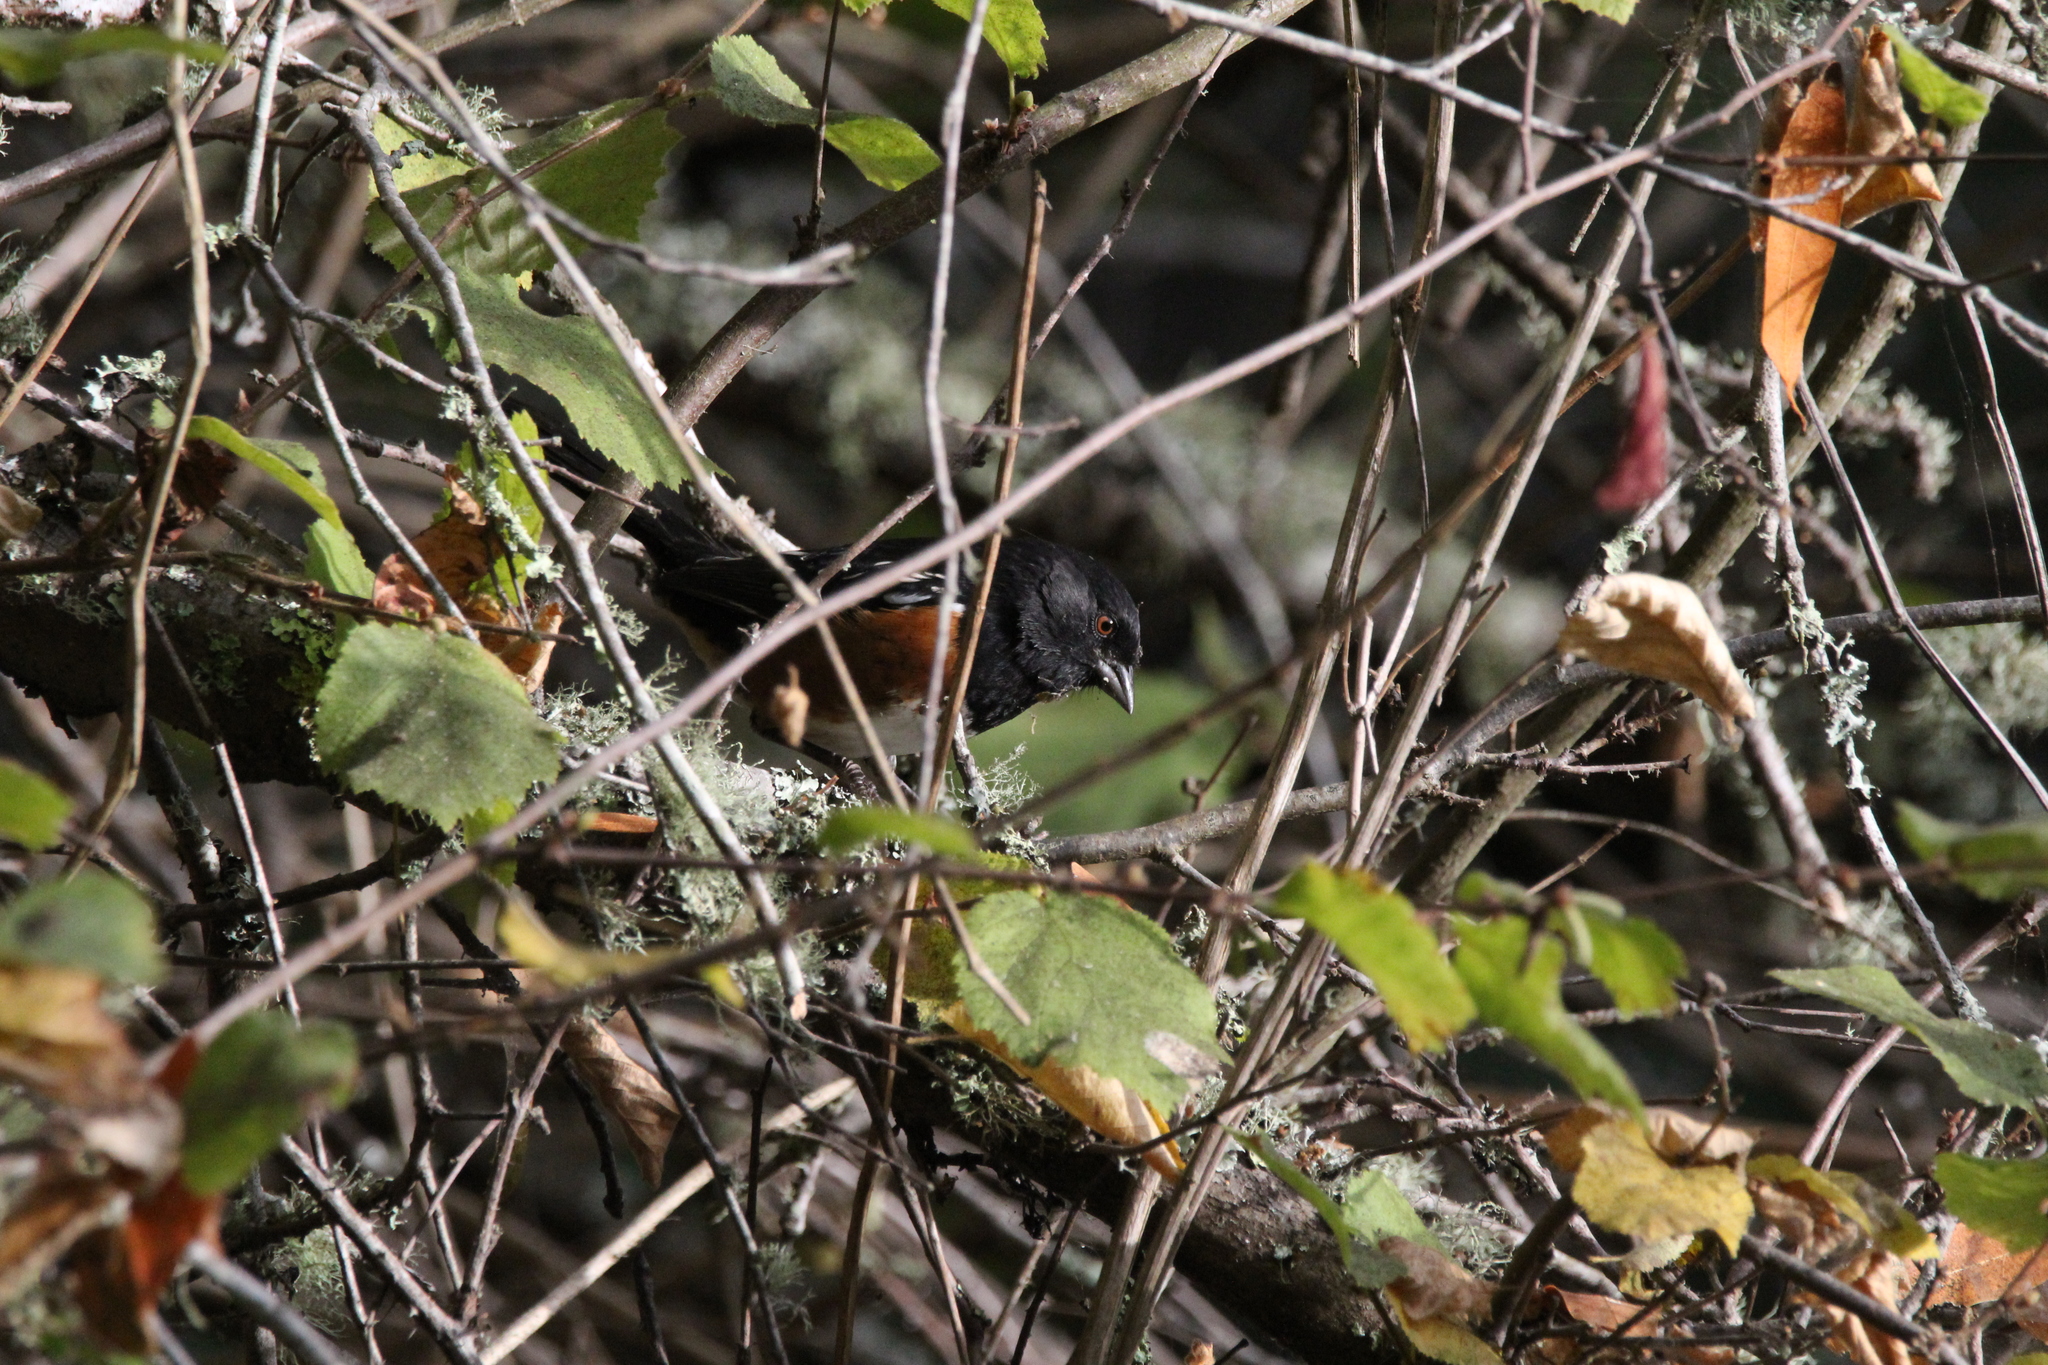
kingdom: Animalia
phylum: Chordata
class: Aves
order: Passeriformes
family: Passerellidae
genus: Pipilo
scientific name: Pipilo maculatus
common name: Spotted towhee
